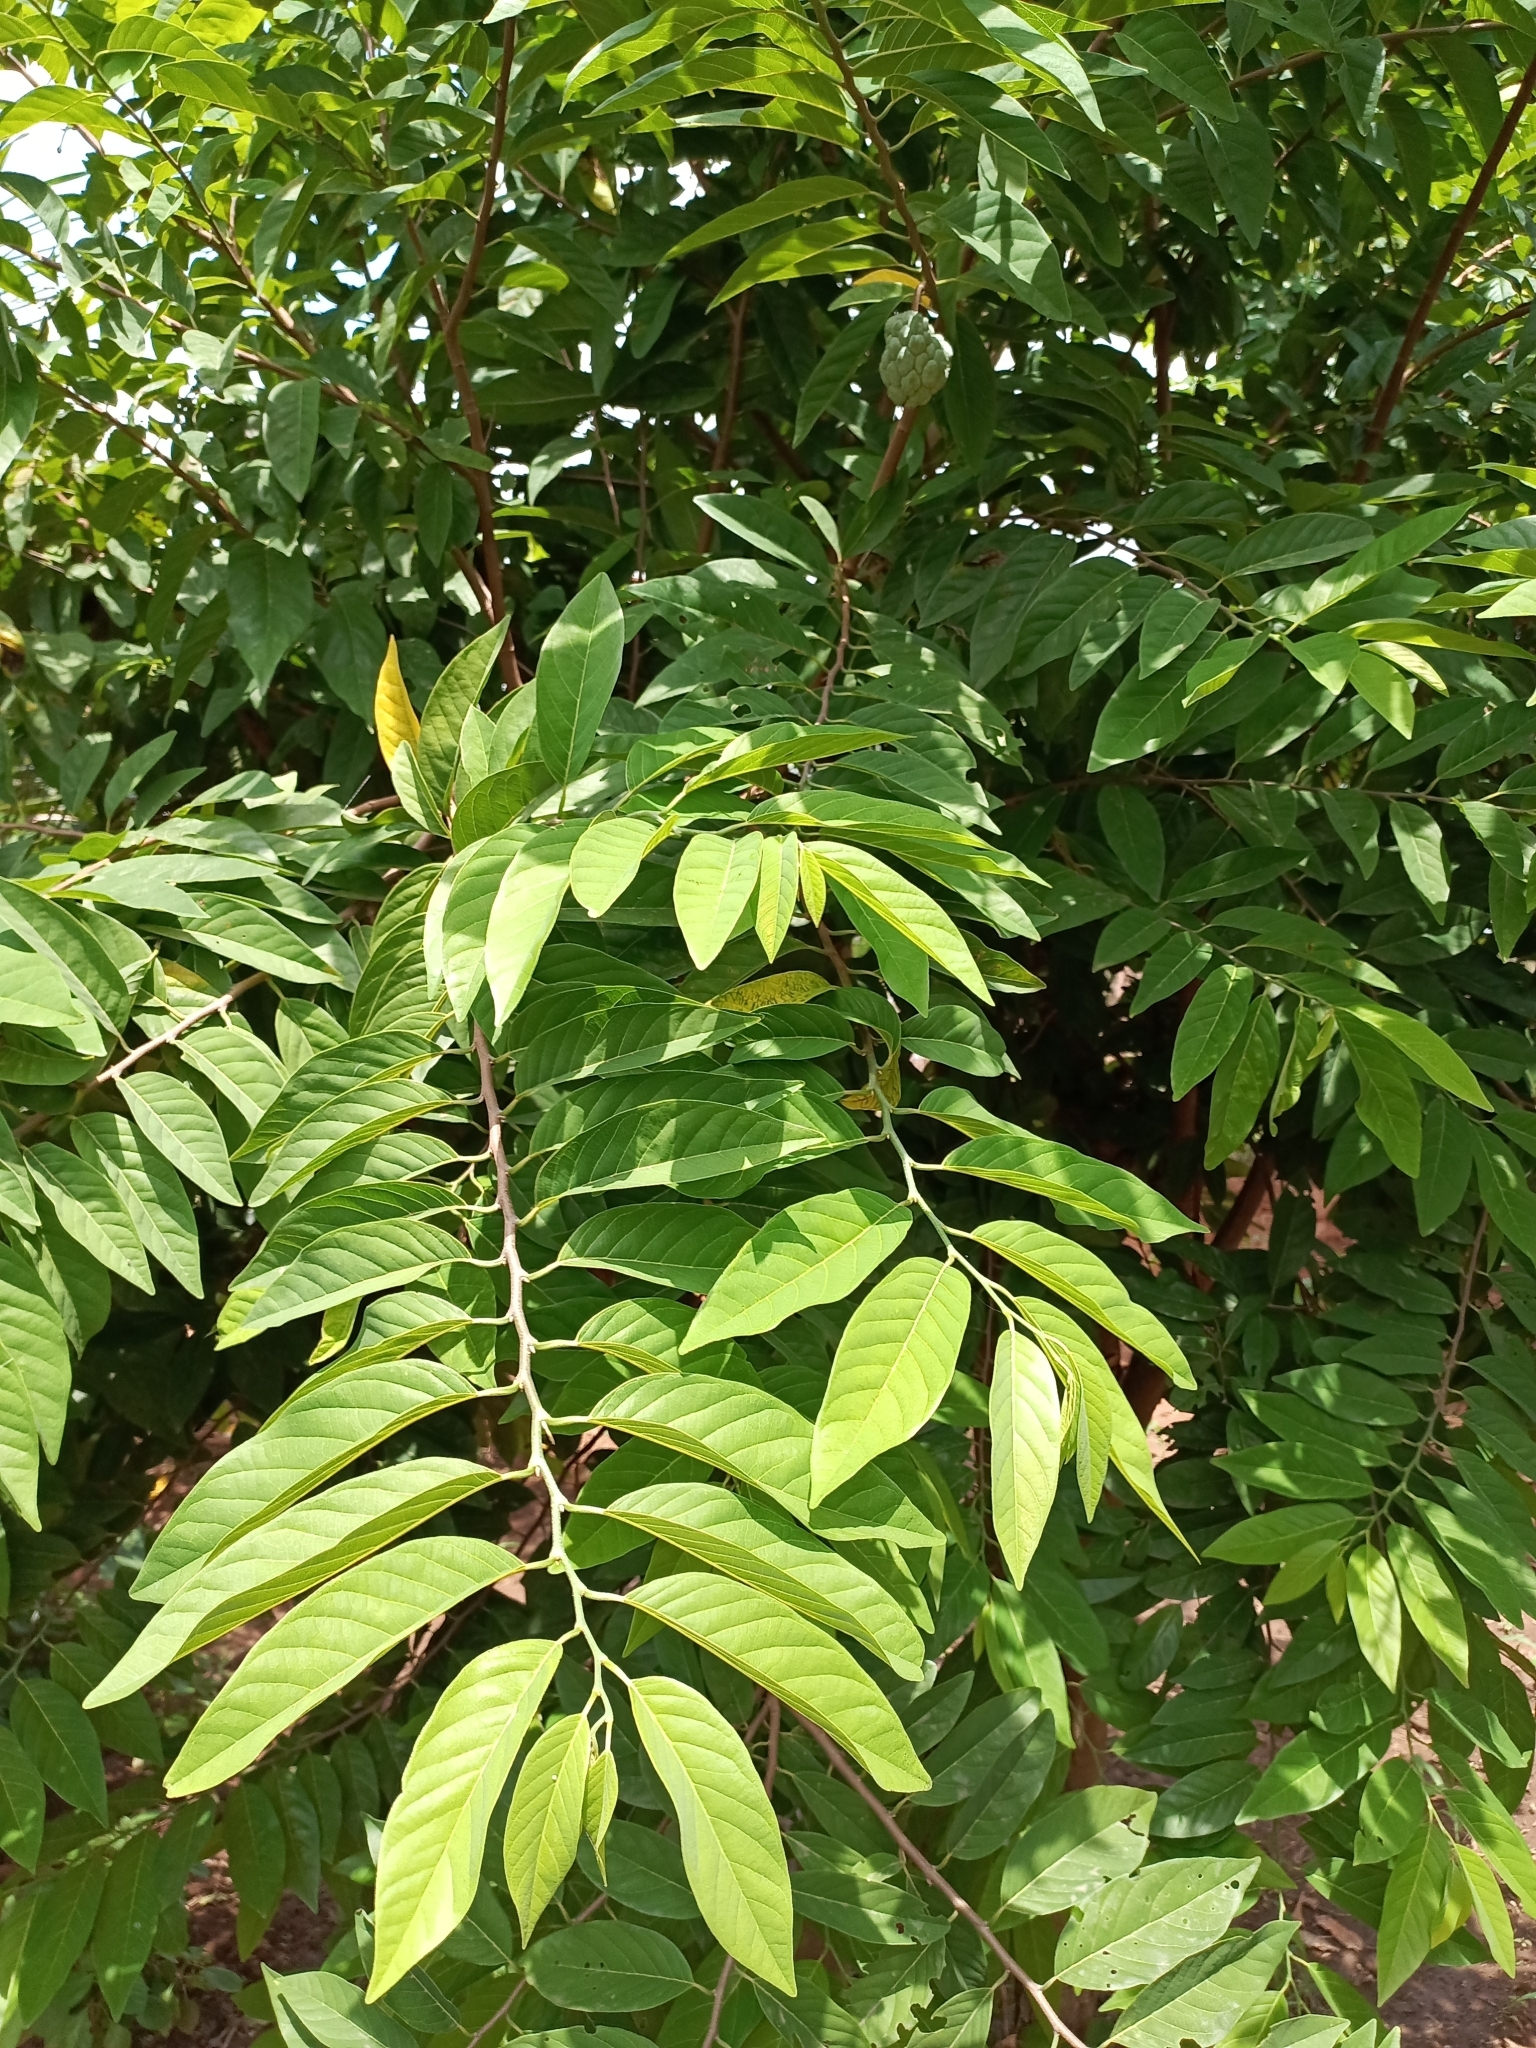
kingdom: Plantae
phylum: Tracheophyta
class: Magnoliopsida
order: Magnoliales
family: Annonaceae
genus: Annona
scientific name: Annona squamosa
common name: Custard-apple
